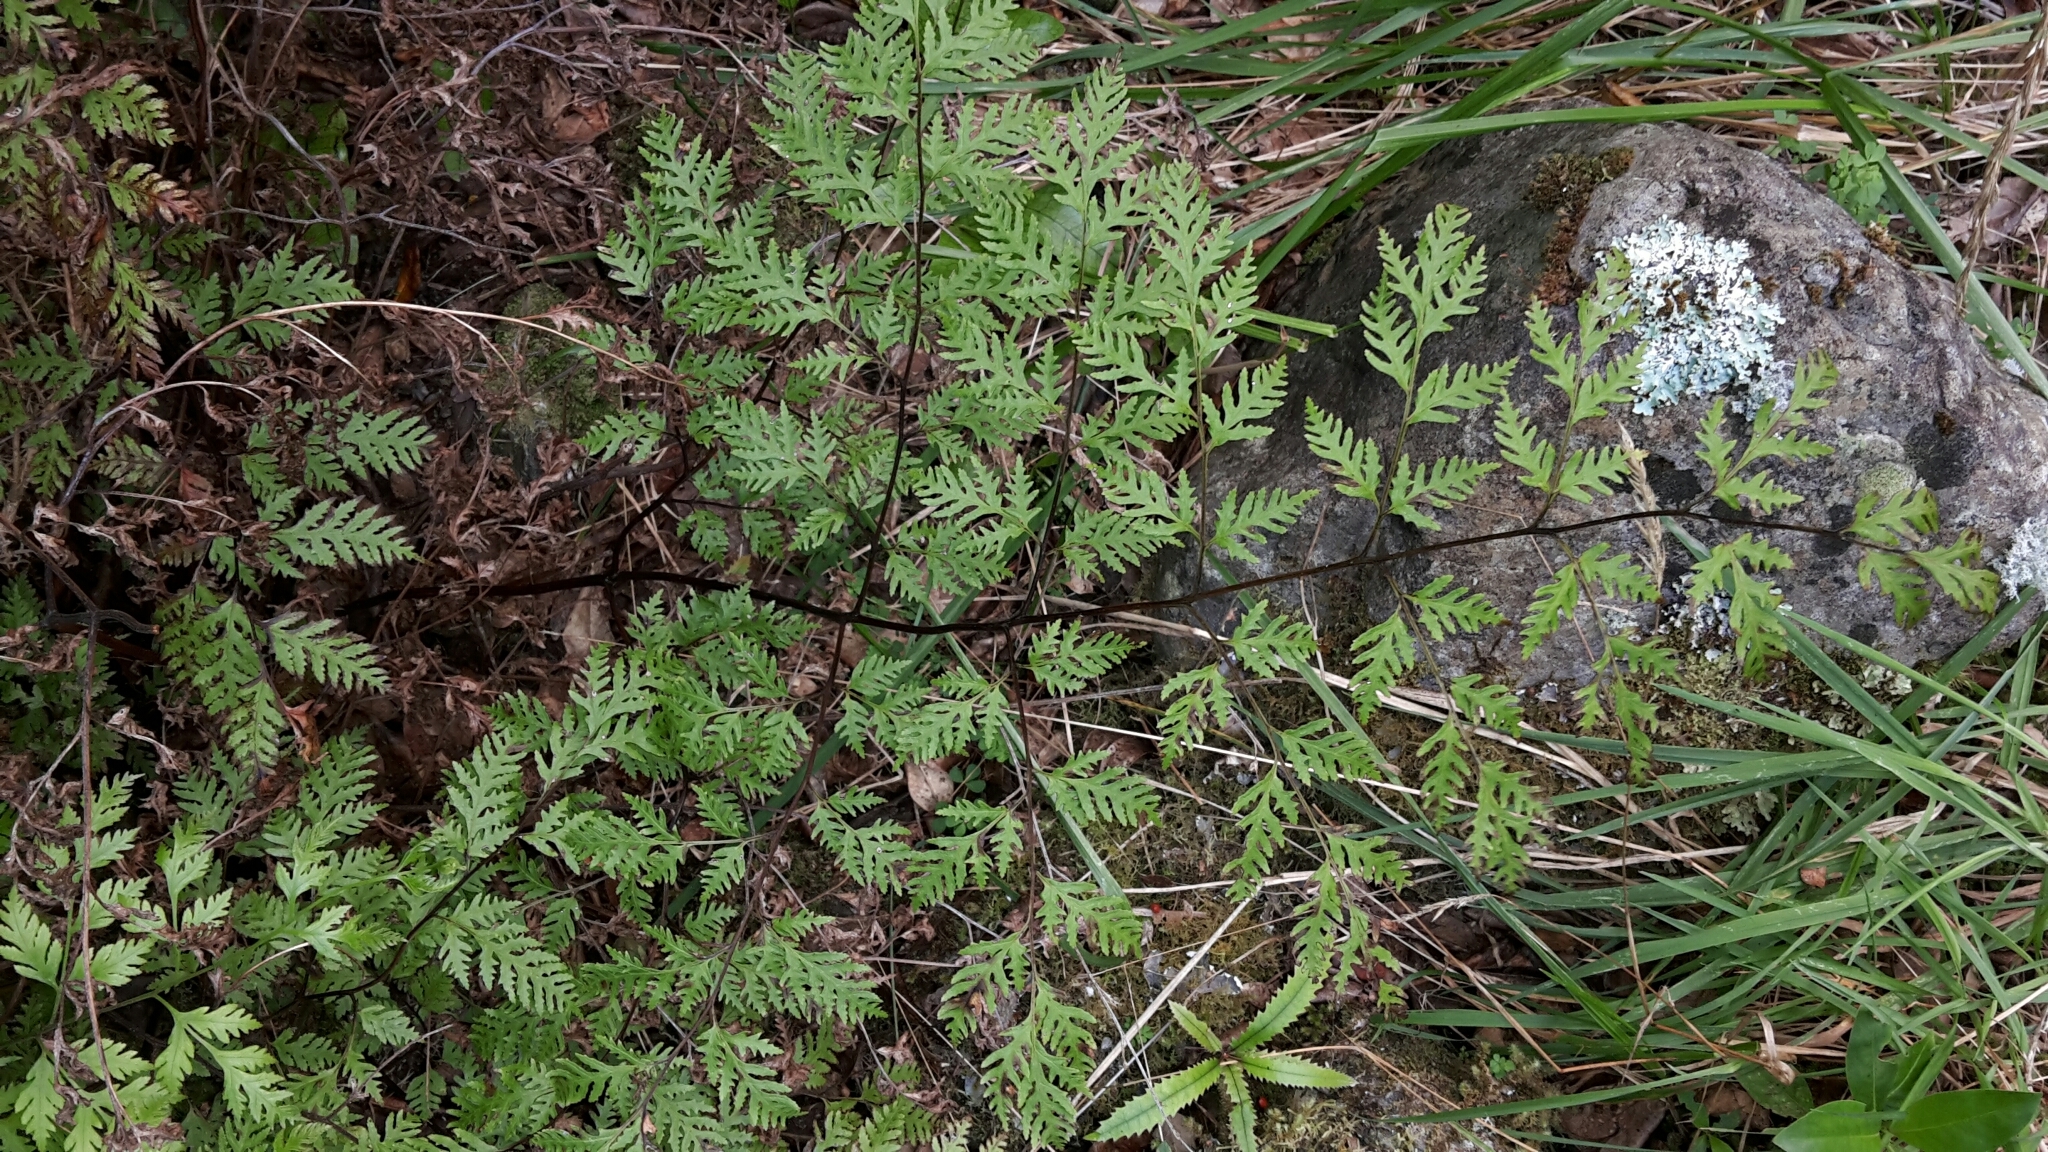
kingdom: Plantae
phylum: Tracheophyta
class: Polypodiopsida
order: Polypodiales
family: Pteridaceae
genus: Pteris
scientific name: Pteris macilenta
